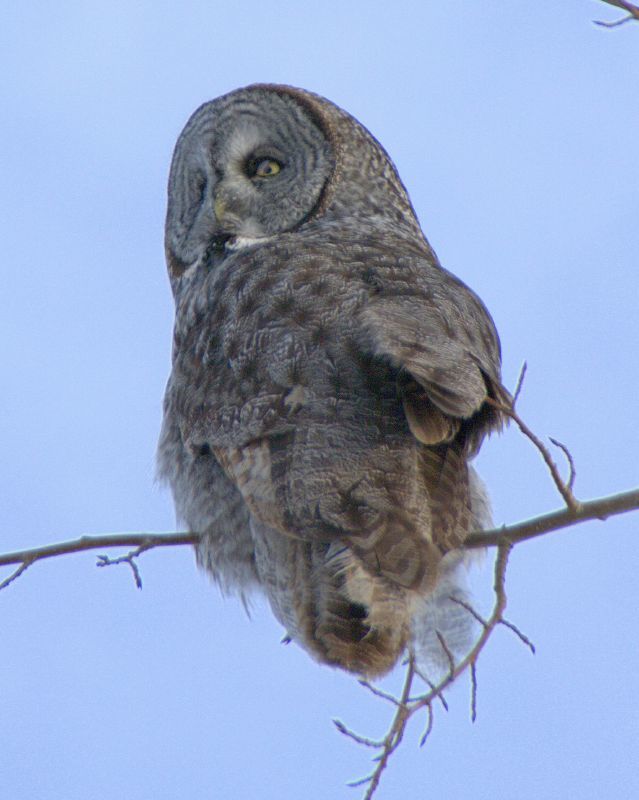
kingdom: Animalia
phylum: Chordata
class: Aves
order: Strigiformes
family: Strigidae
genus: Strix
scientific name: Strix nebulosa
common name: Great grey owl
